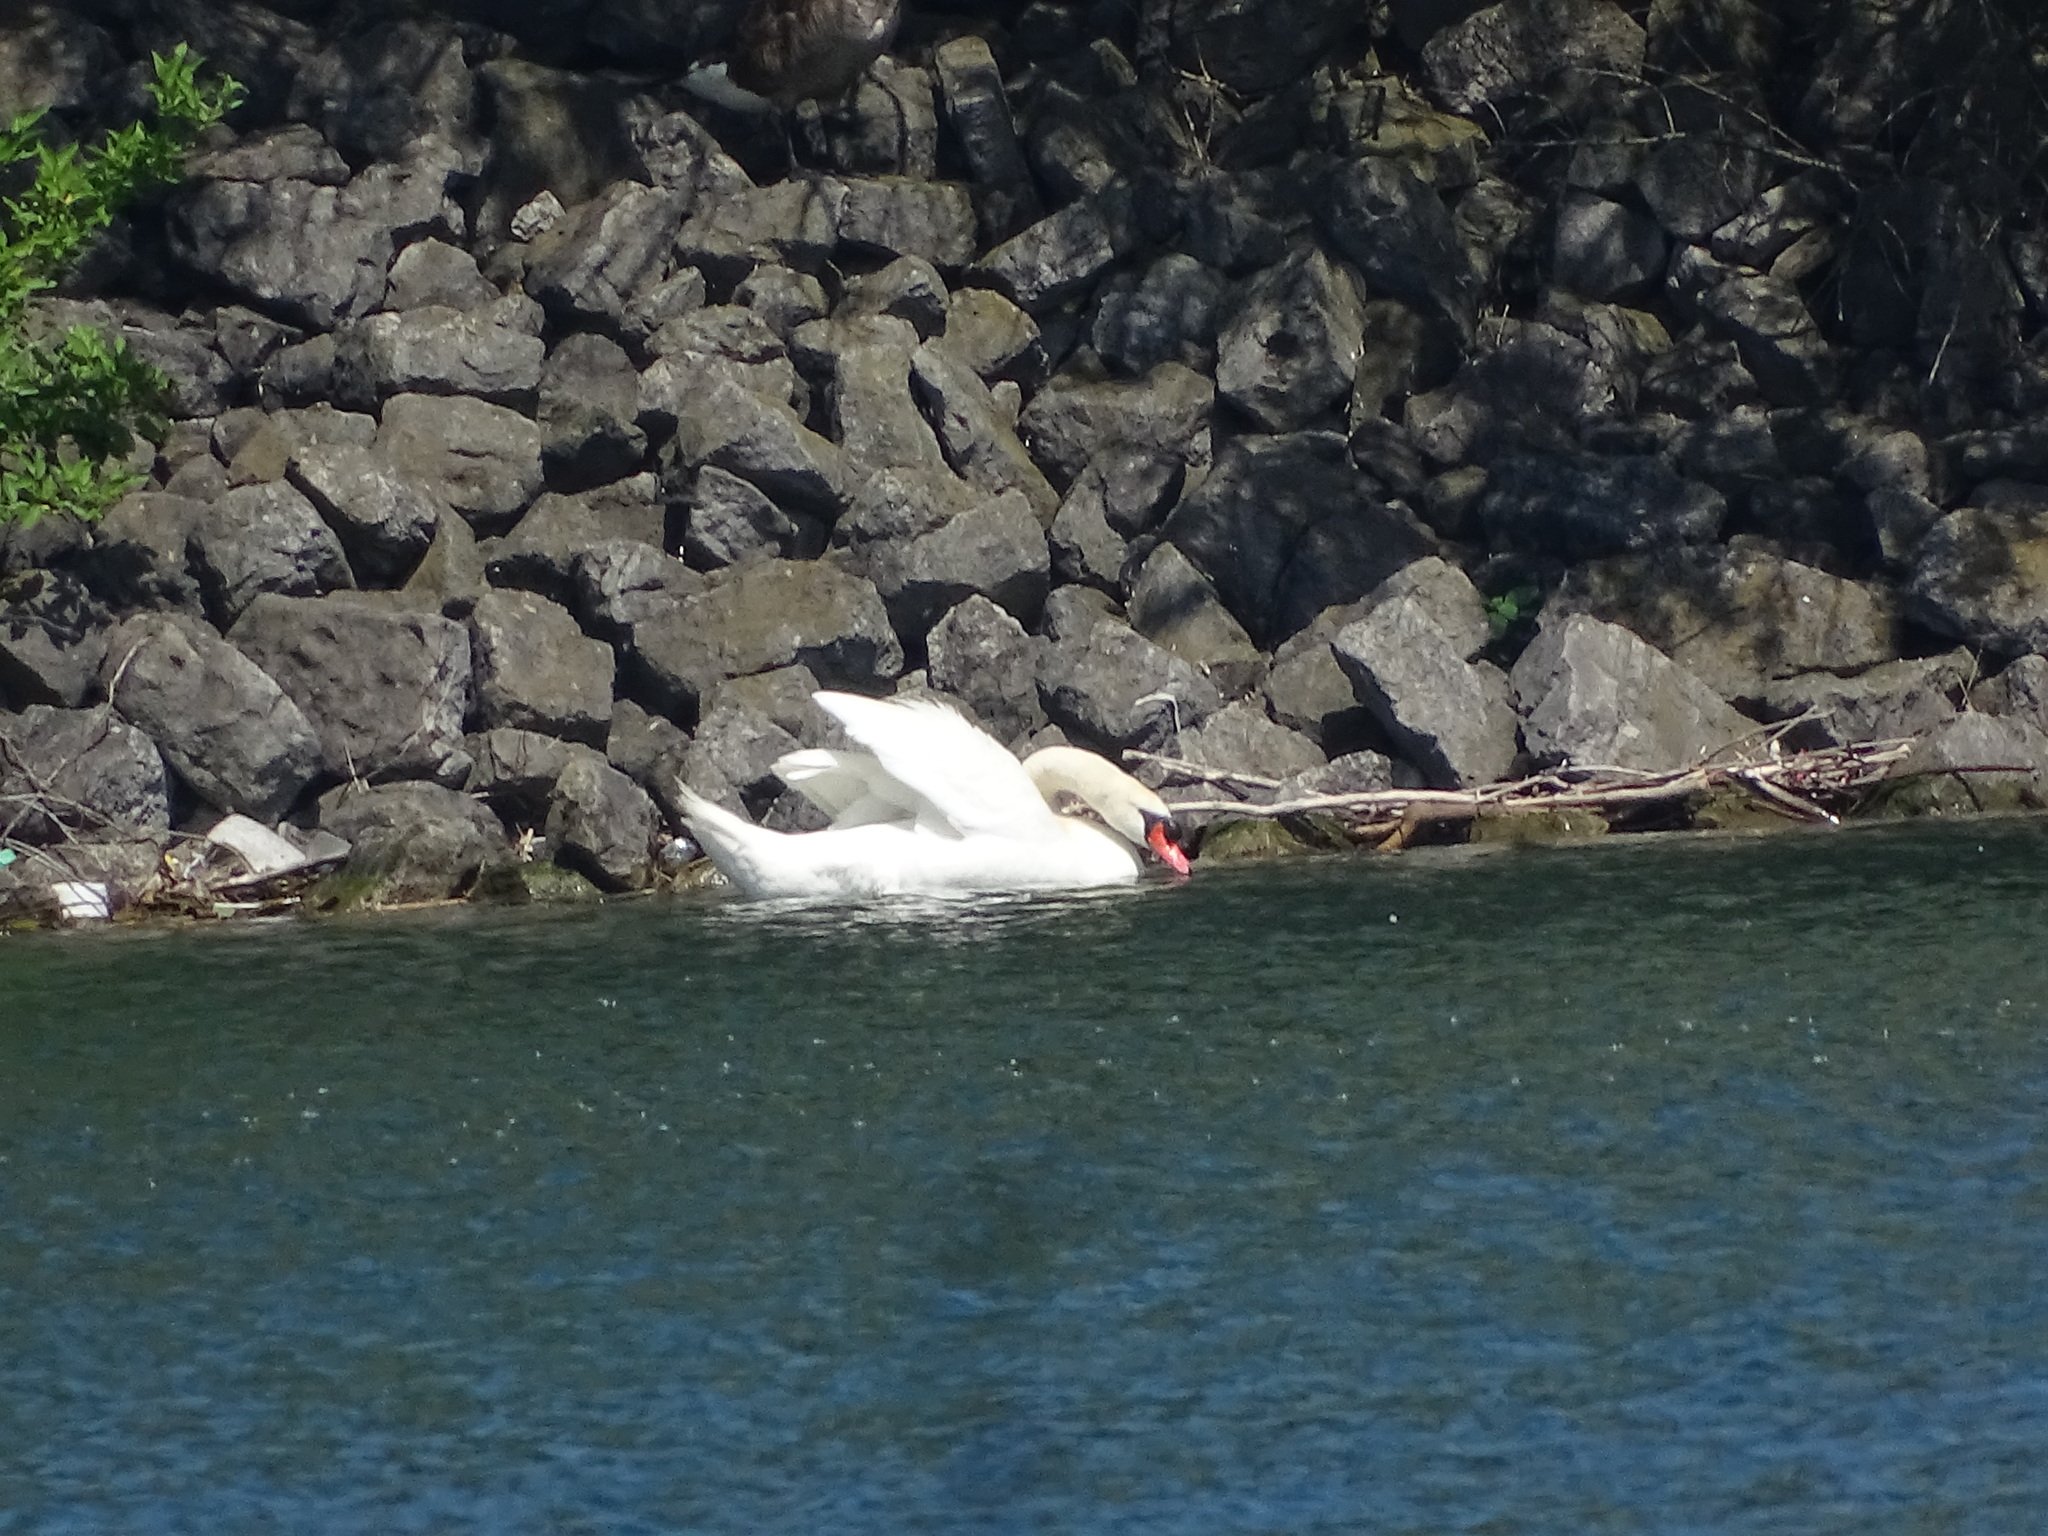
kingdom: Animalia
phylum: Chordata
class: Aves
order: Anseriformes
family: Anatidae
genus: Cygnus
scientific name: Cygnus olor
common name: Mute swan
